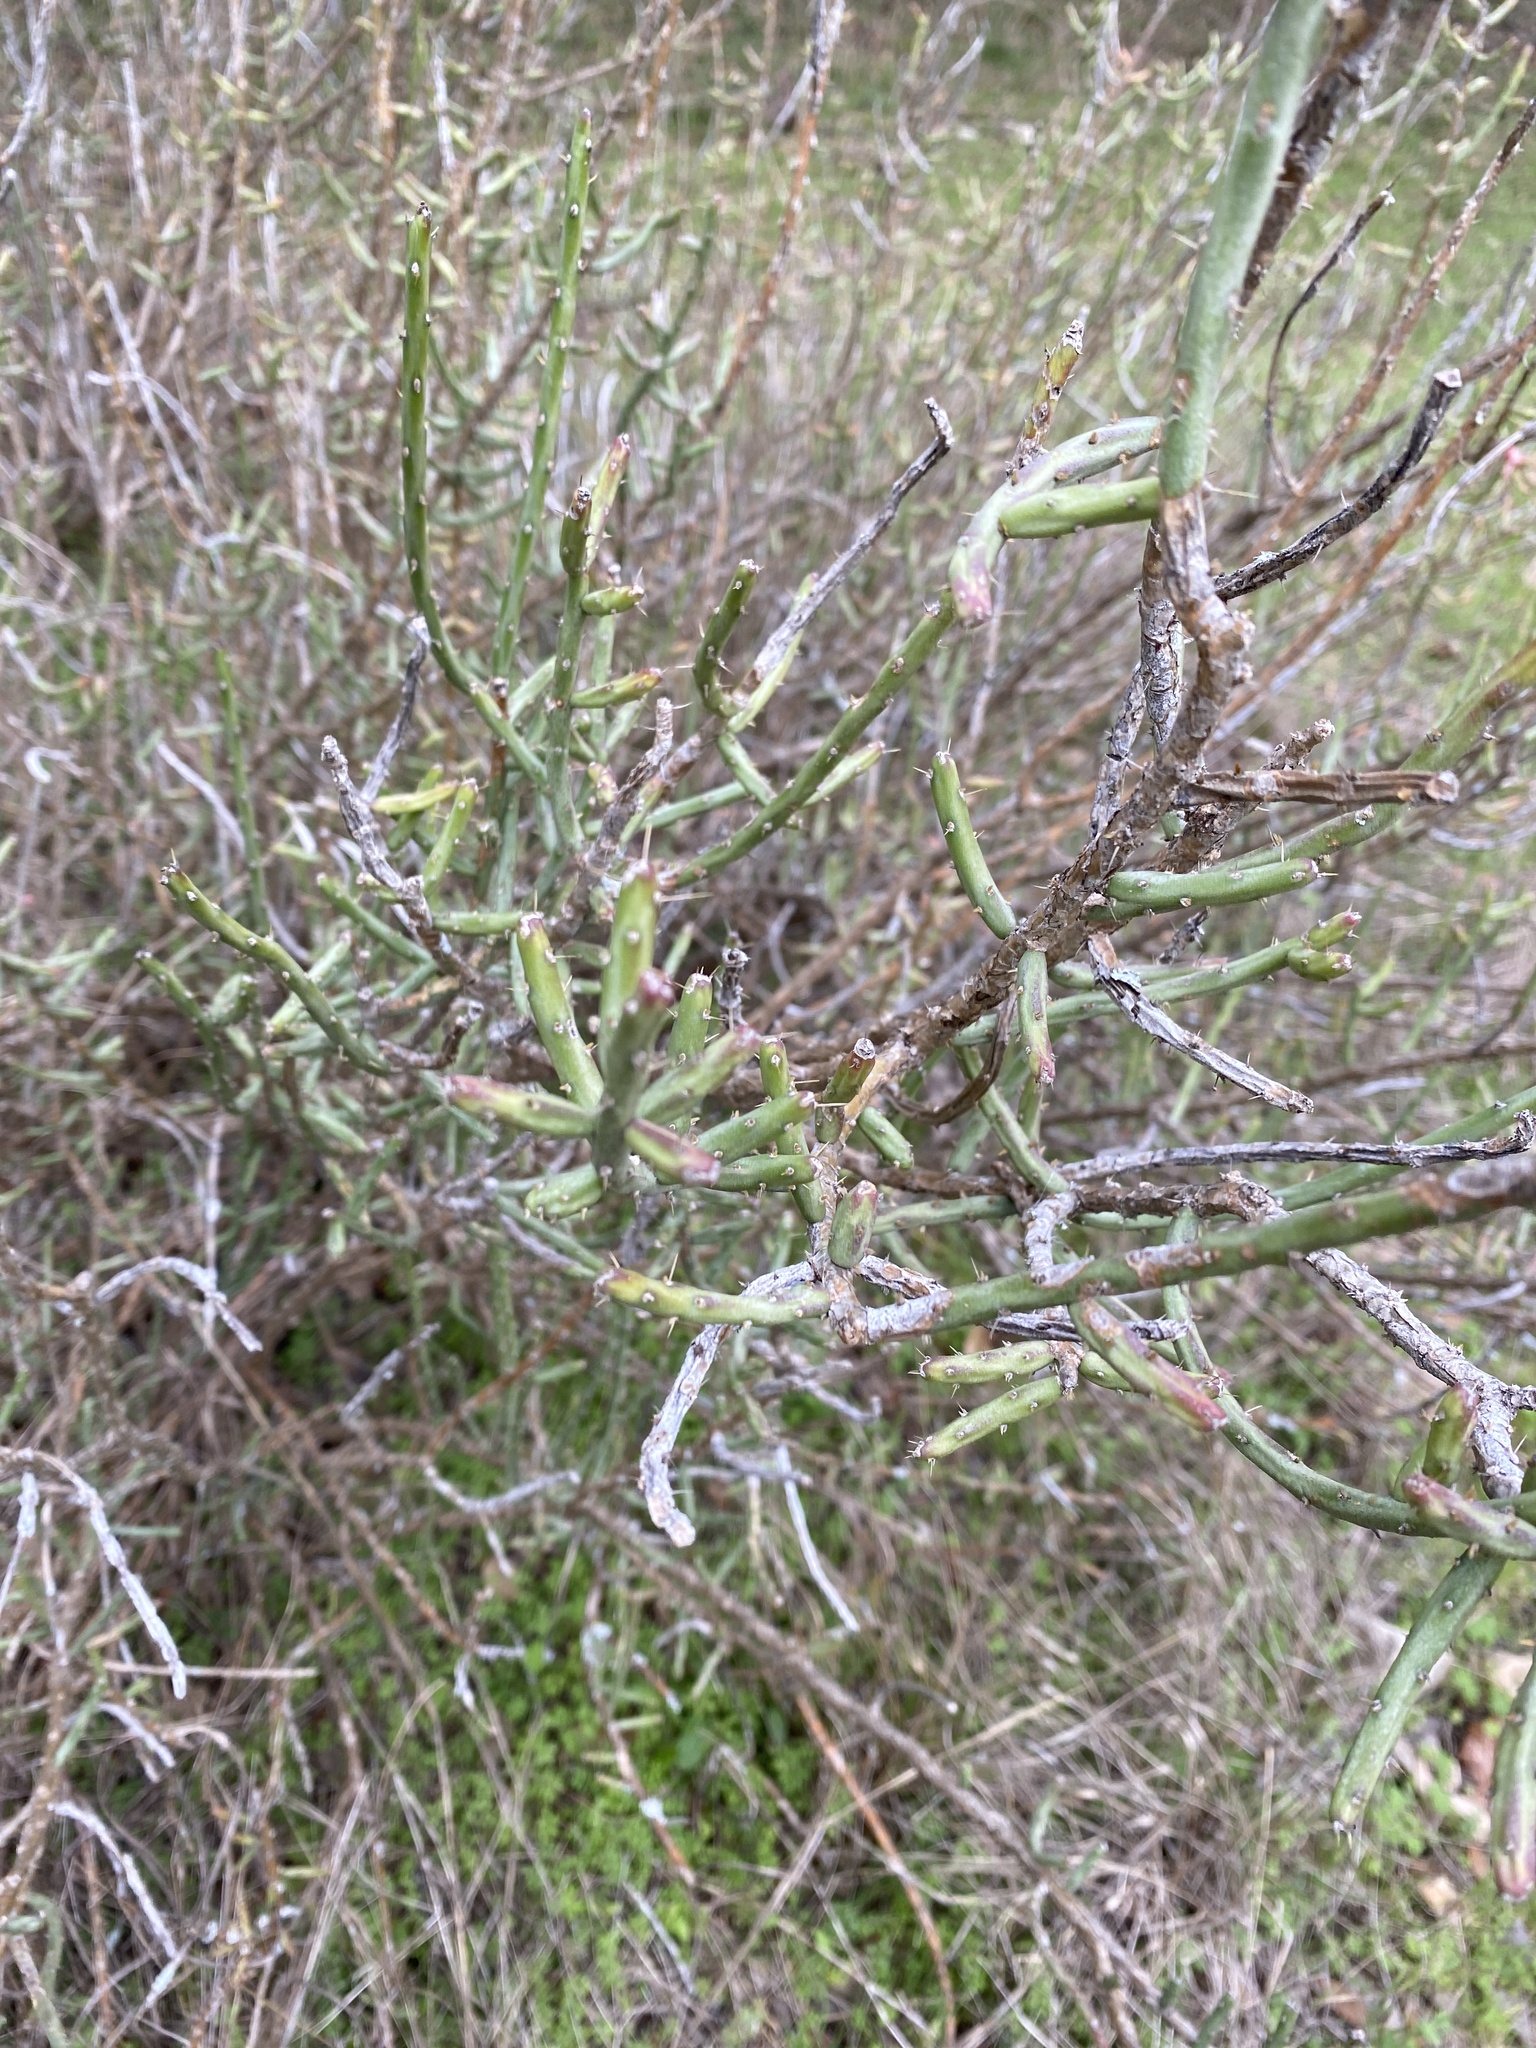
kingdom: Plantae
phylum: Tracheophyta
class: Magnoliopsida
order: Caryophyllales
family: Cactaceae
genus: Cylindropuntia
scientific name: Cylindropuntia leptocaulis
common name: Christmas cactus
